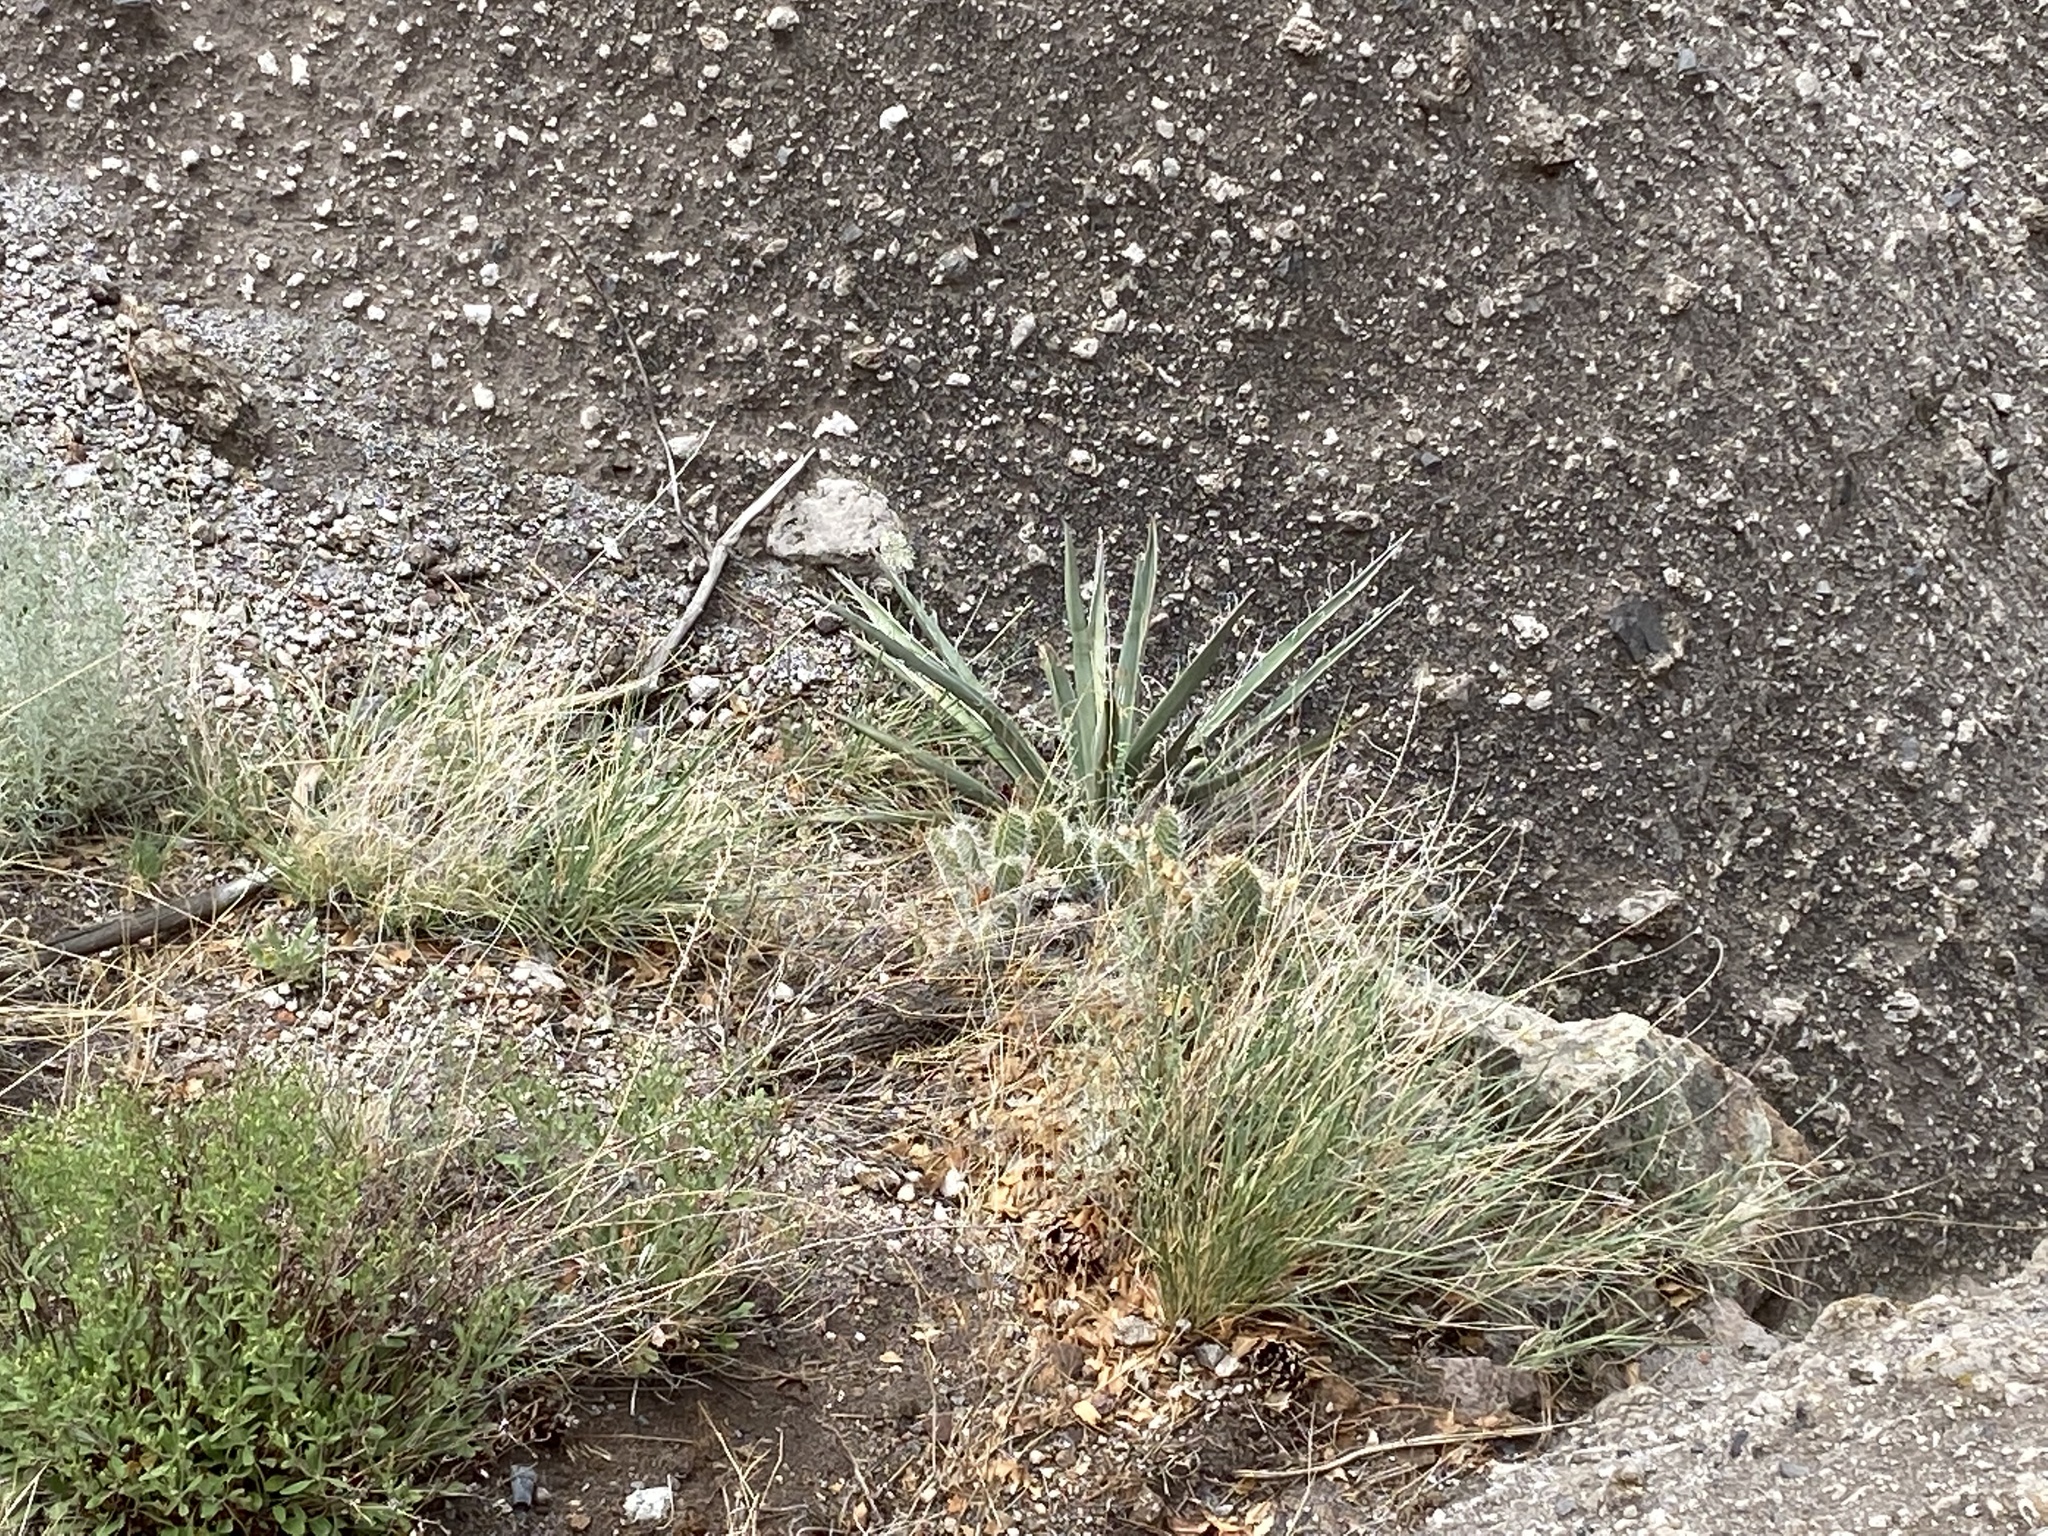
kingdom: Plantae
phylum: Tracheophyta
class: Magnoliopsida
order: Caryophyllales
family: Cactaceae
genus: Opuntia
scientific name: Opuntia polyacantha
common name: Plains prickly-pear
